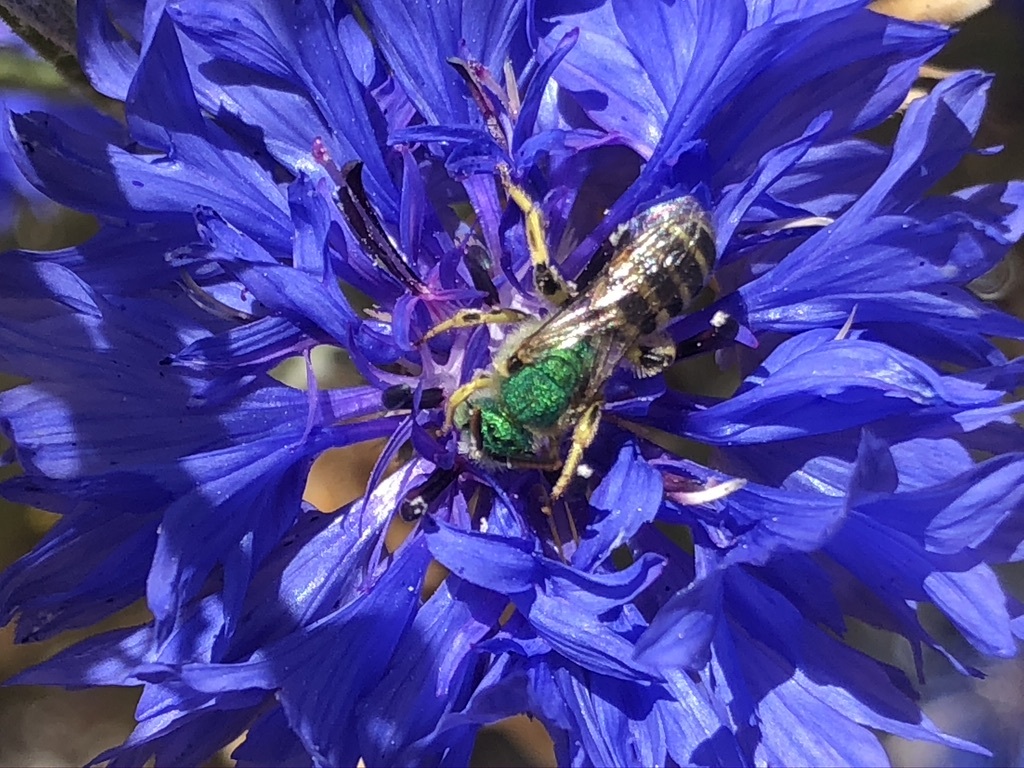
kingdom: Animalia
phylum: Arthropoda
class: Insecta
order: Hymenoptera
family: Halictidae
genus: Agapostemon
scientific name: Agapostemon texanus
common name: Texas striped sweat bee
